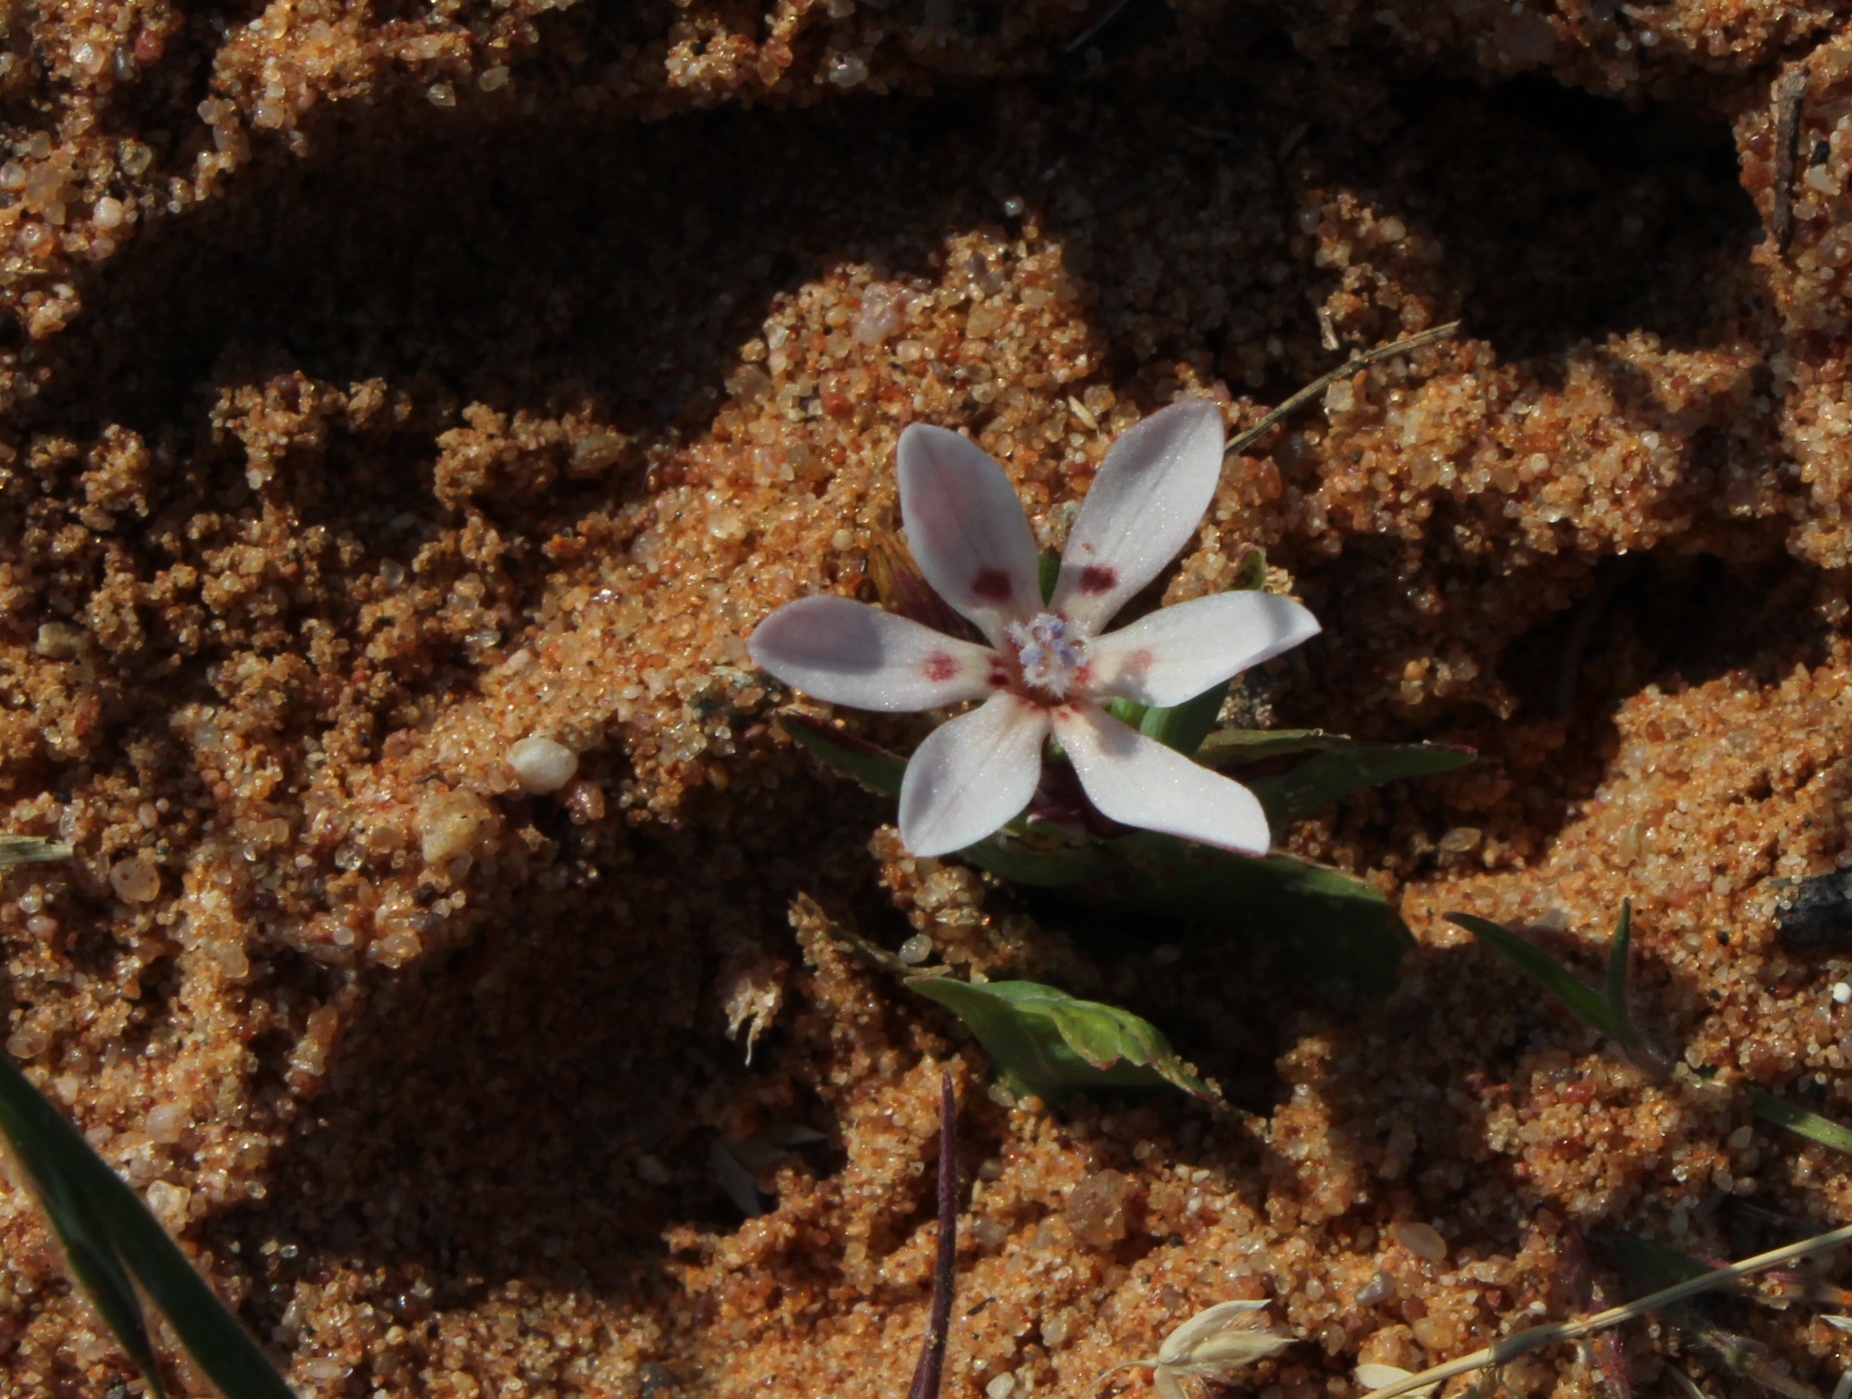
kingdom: Plantae
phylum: Tracheophyta
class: Liliopsida
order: Asparagales
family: Iridaceae
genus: Lapeirousia
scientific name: Lapeirousia divaricata
